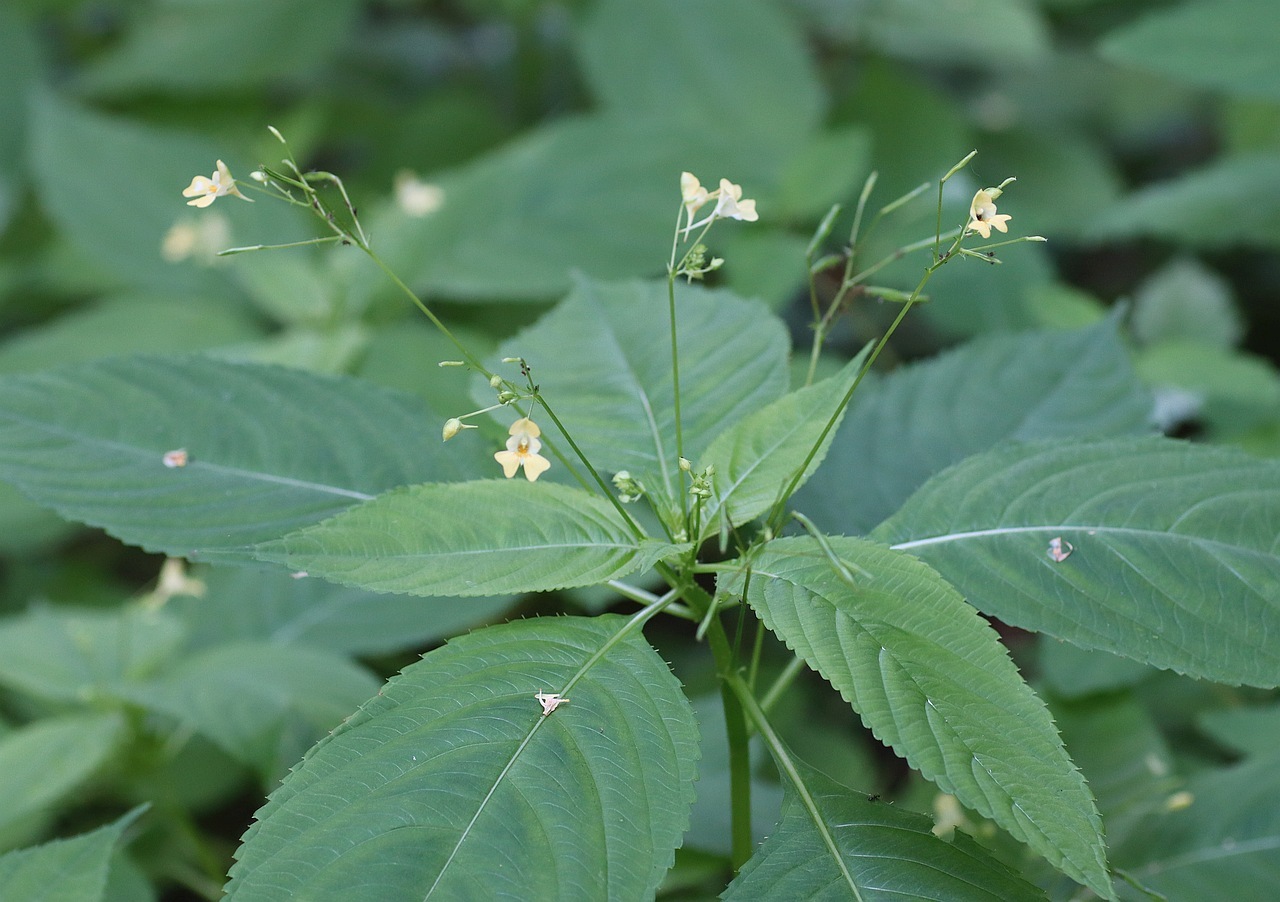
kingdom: Plantae
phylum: Tracheophyta
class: Magnoliopsida
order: Ericales
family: Balsaminaceae
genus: Impatiens
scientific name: Impatiens parviflora
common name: Small balsam
